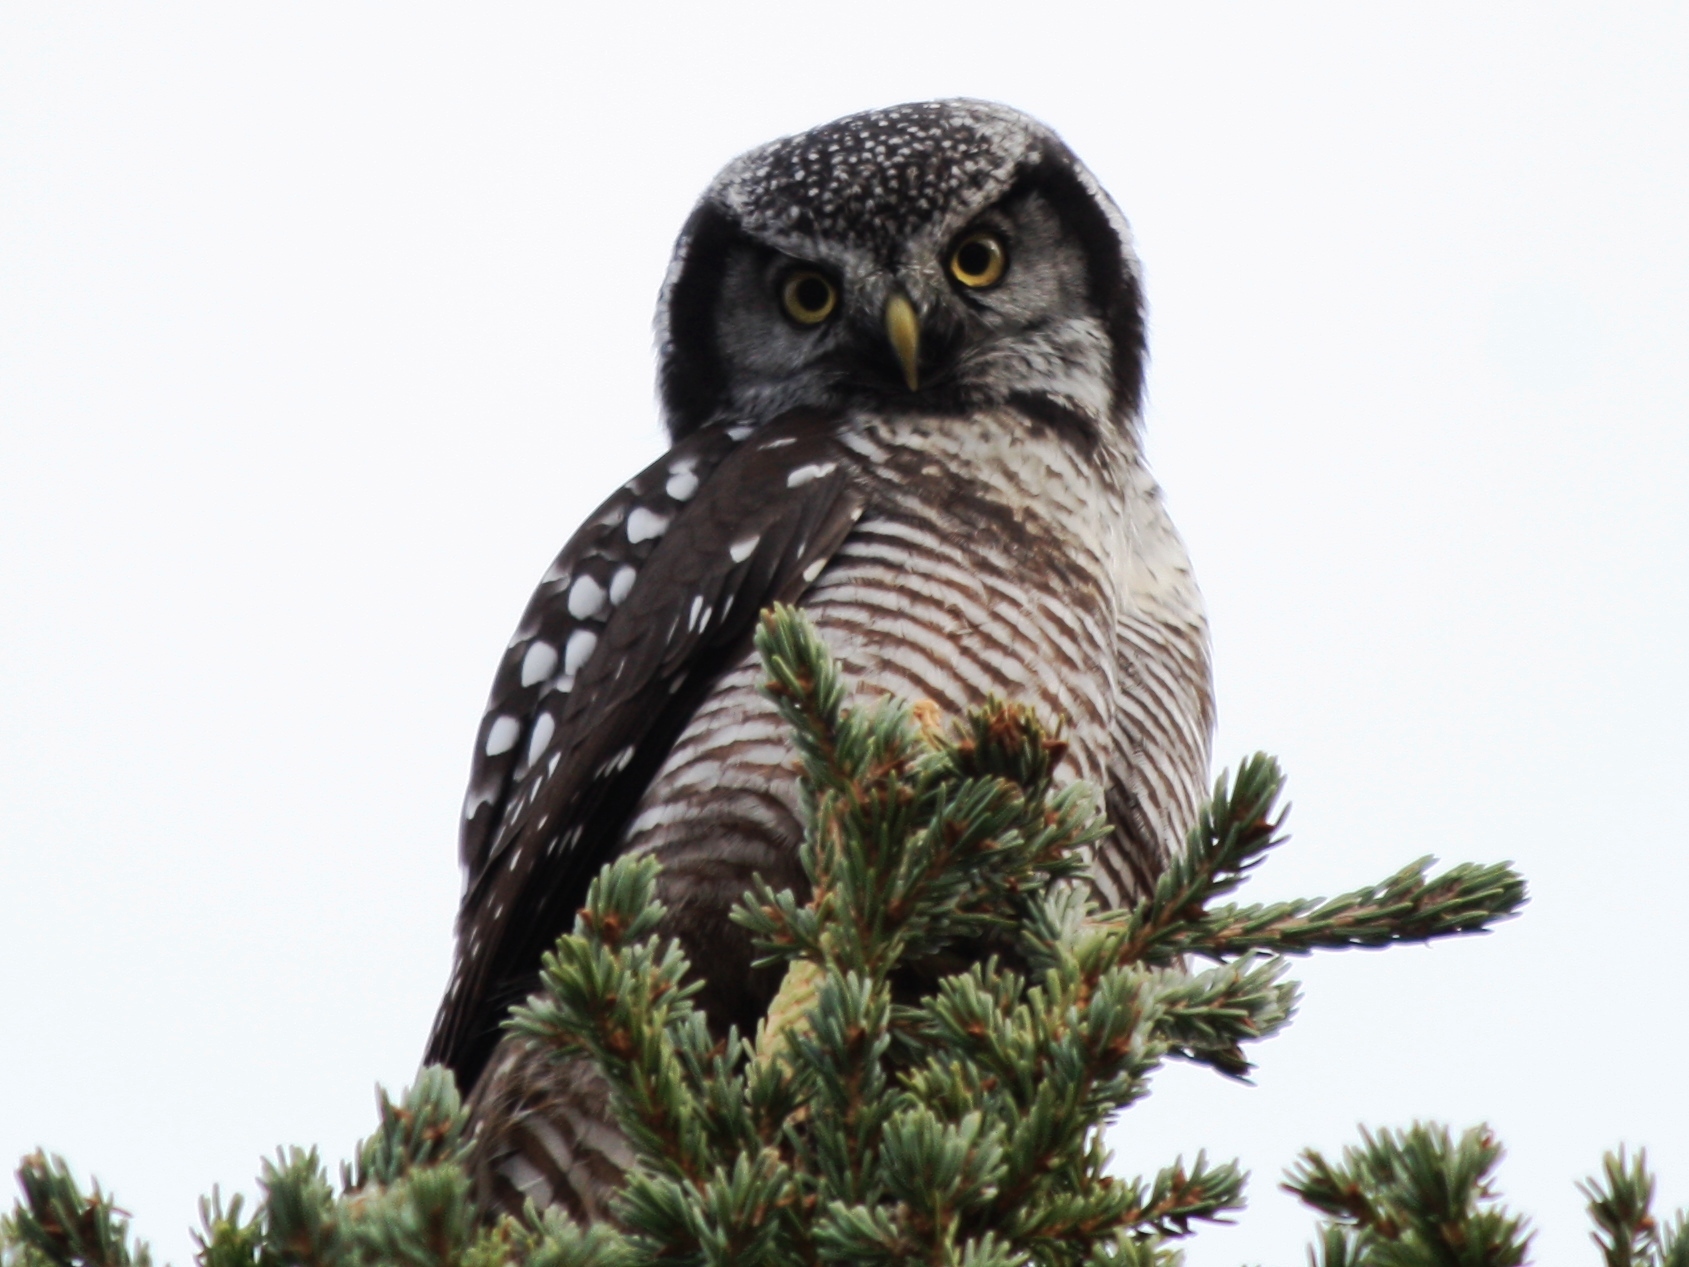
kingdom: Animalia
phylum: Chordata
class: Aves
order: Strigiformes
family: Strigidae
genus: Surnia
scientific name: Surnia ulula
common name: Northern hawk-owl
